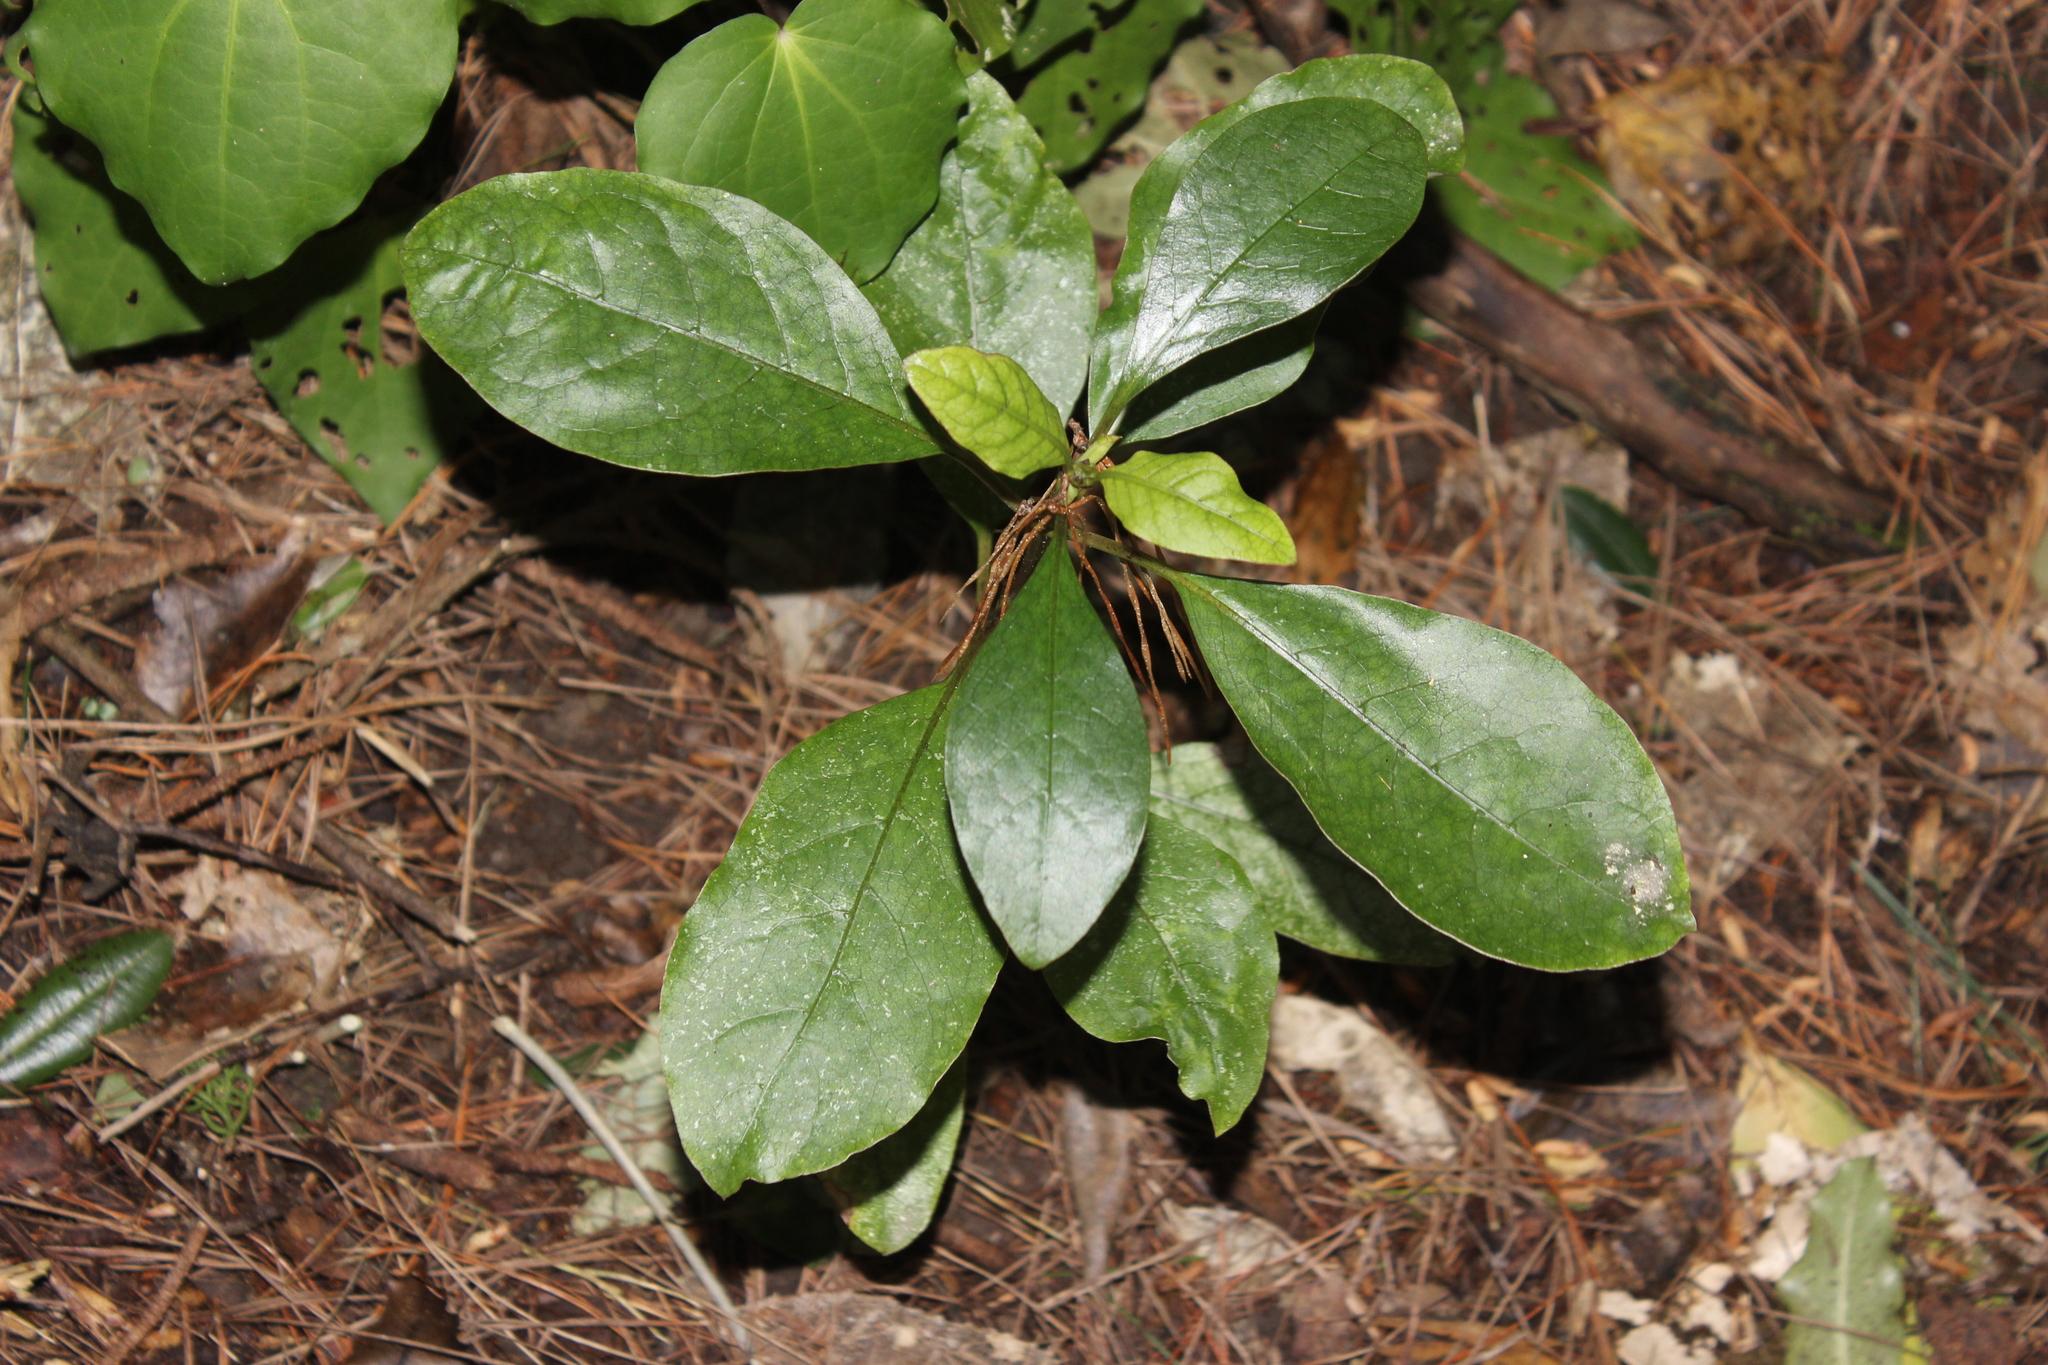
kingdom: Plantae
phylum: Tracheophyta
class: Magnoliopsida
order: Gentianales
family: Rubiaceae
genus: Coprosma
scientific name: Coprosma autumnalis
